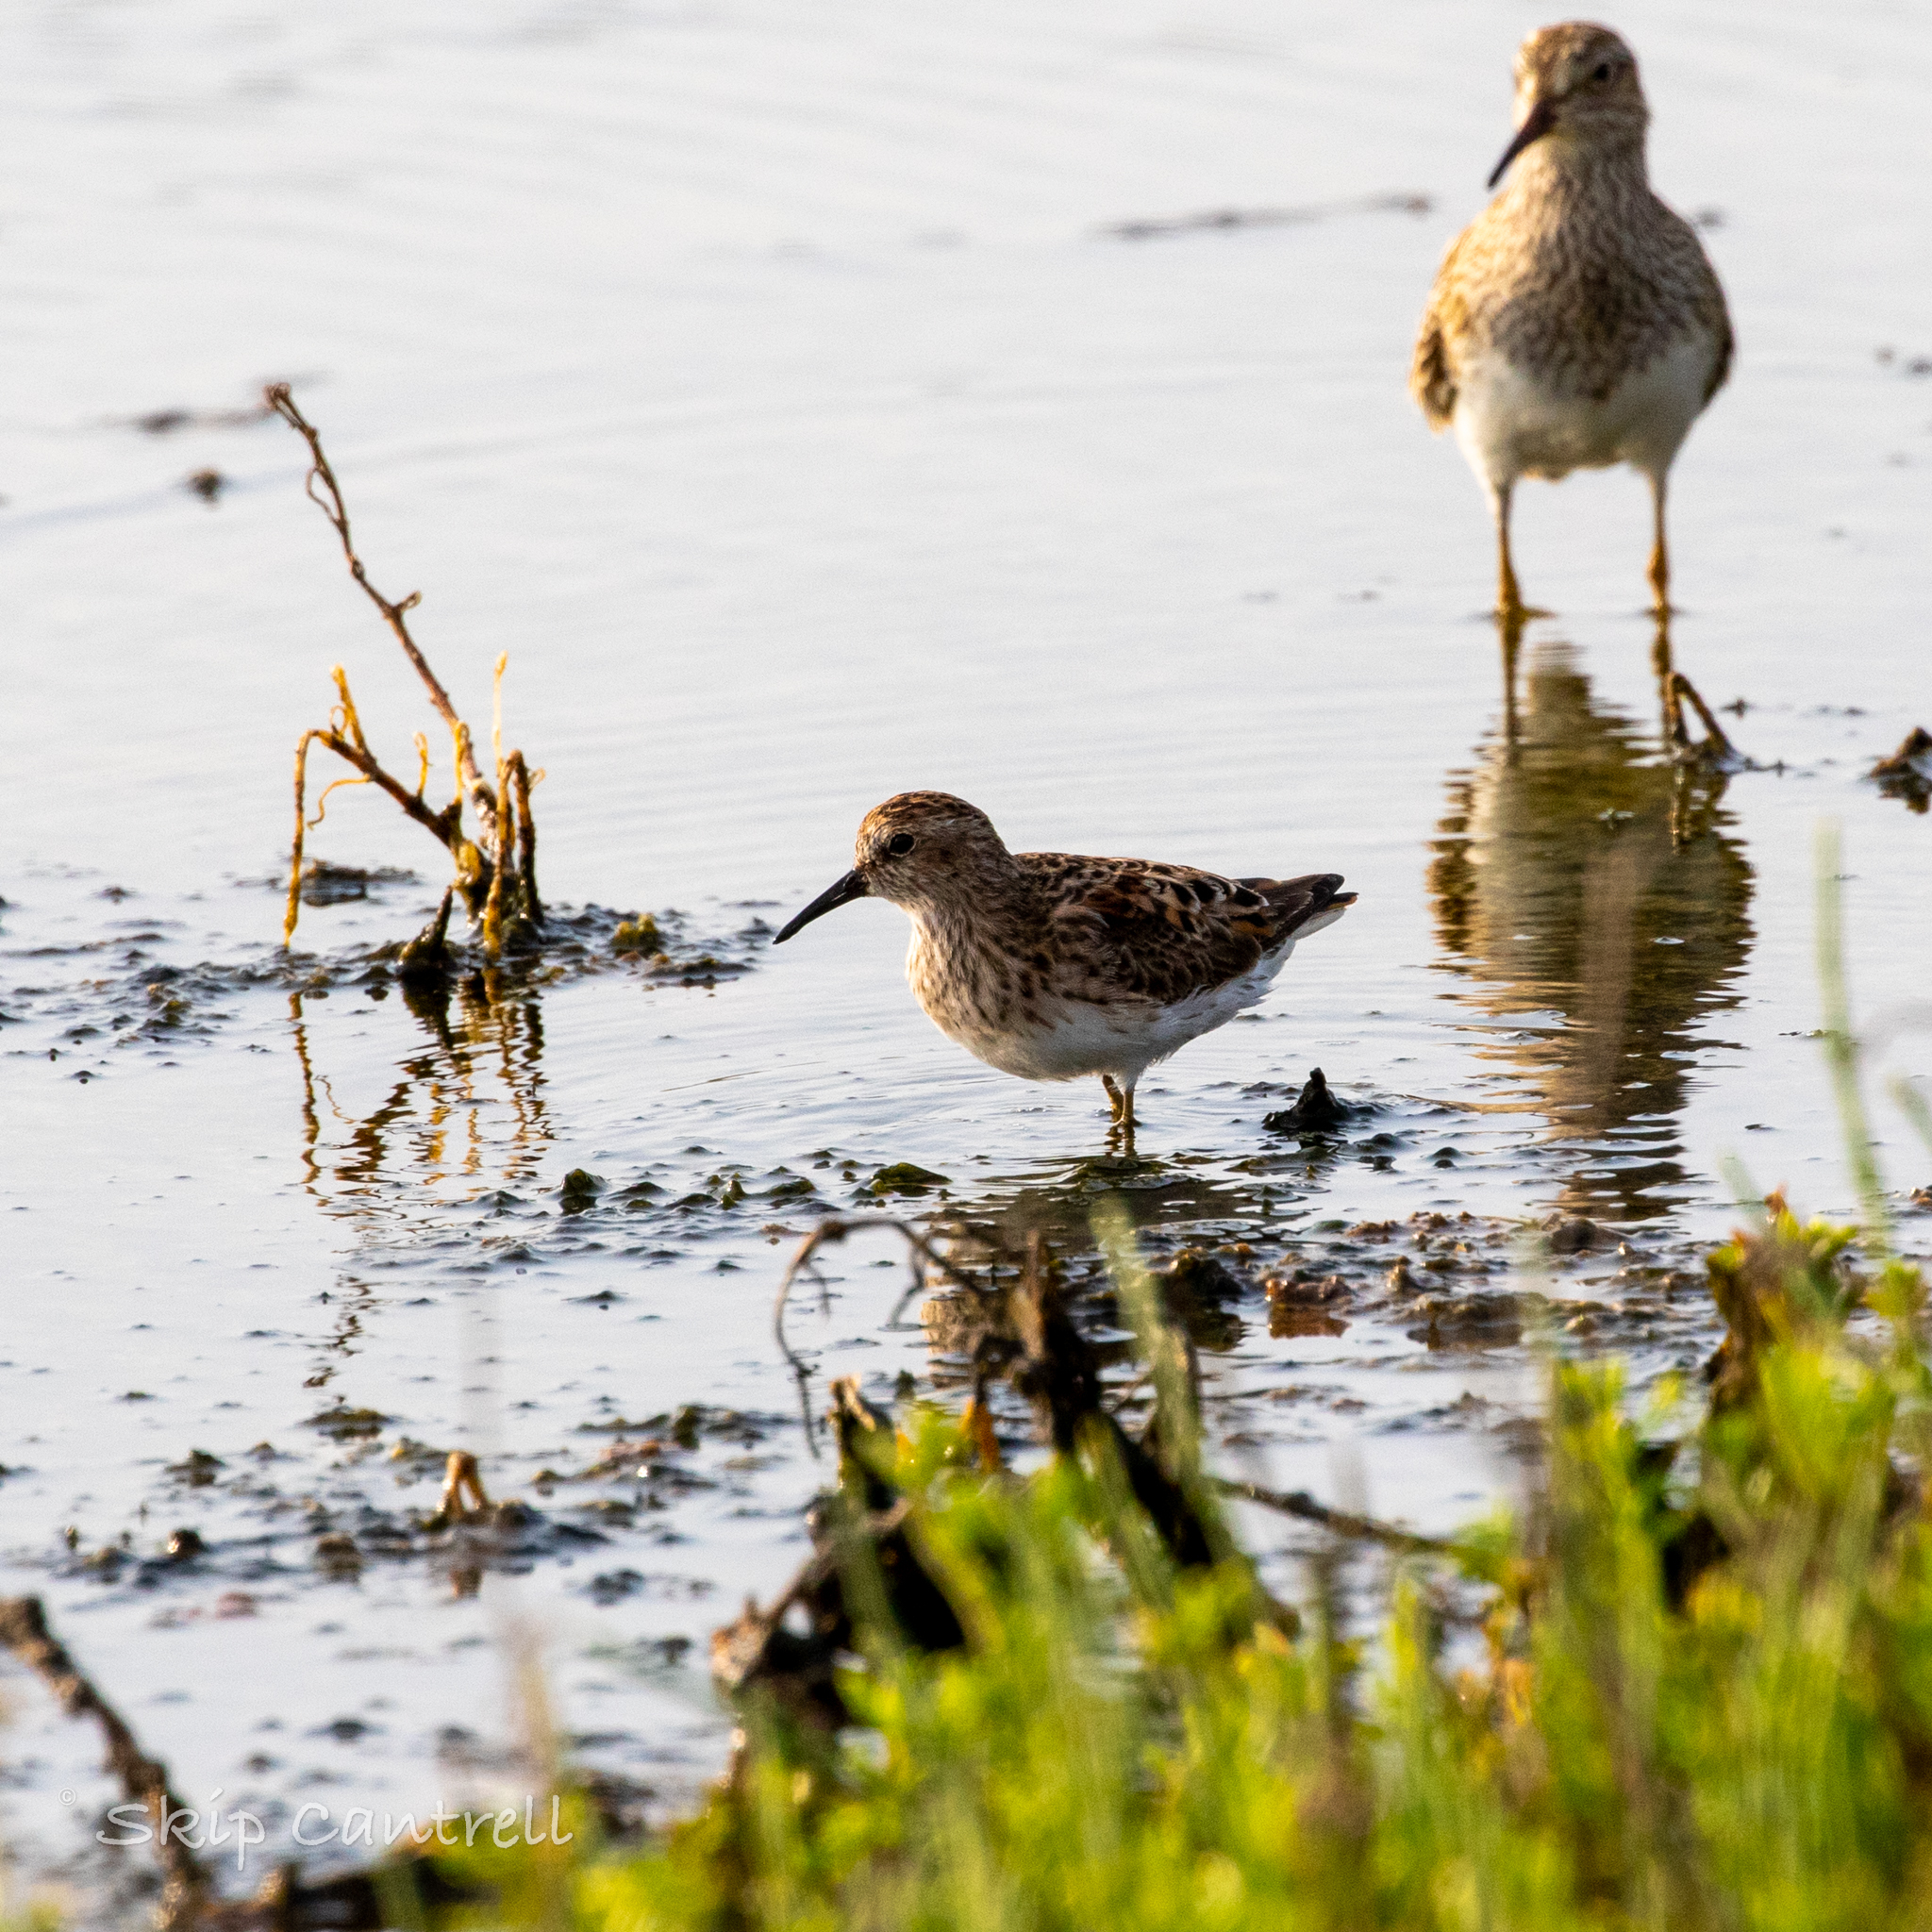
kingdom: Animalia
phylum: Chordata
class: Aves
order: Charadriiformes
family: Scolopacidae
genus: Calidris
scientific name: Calidris minutilla
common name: Least sandpiper
